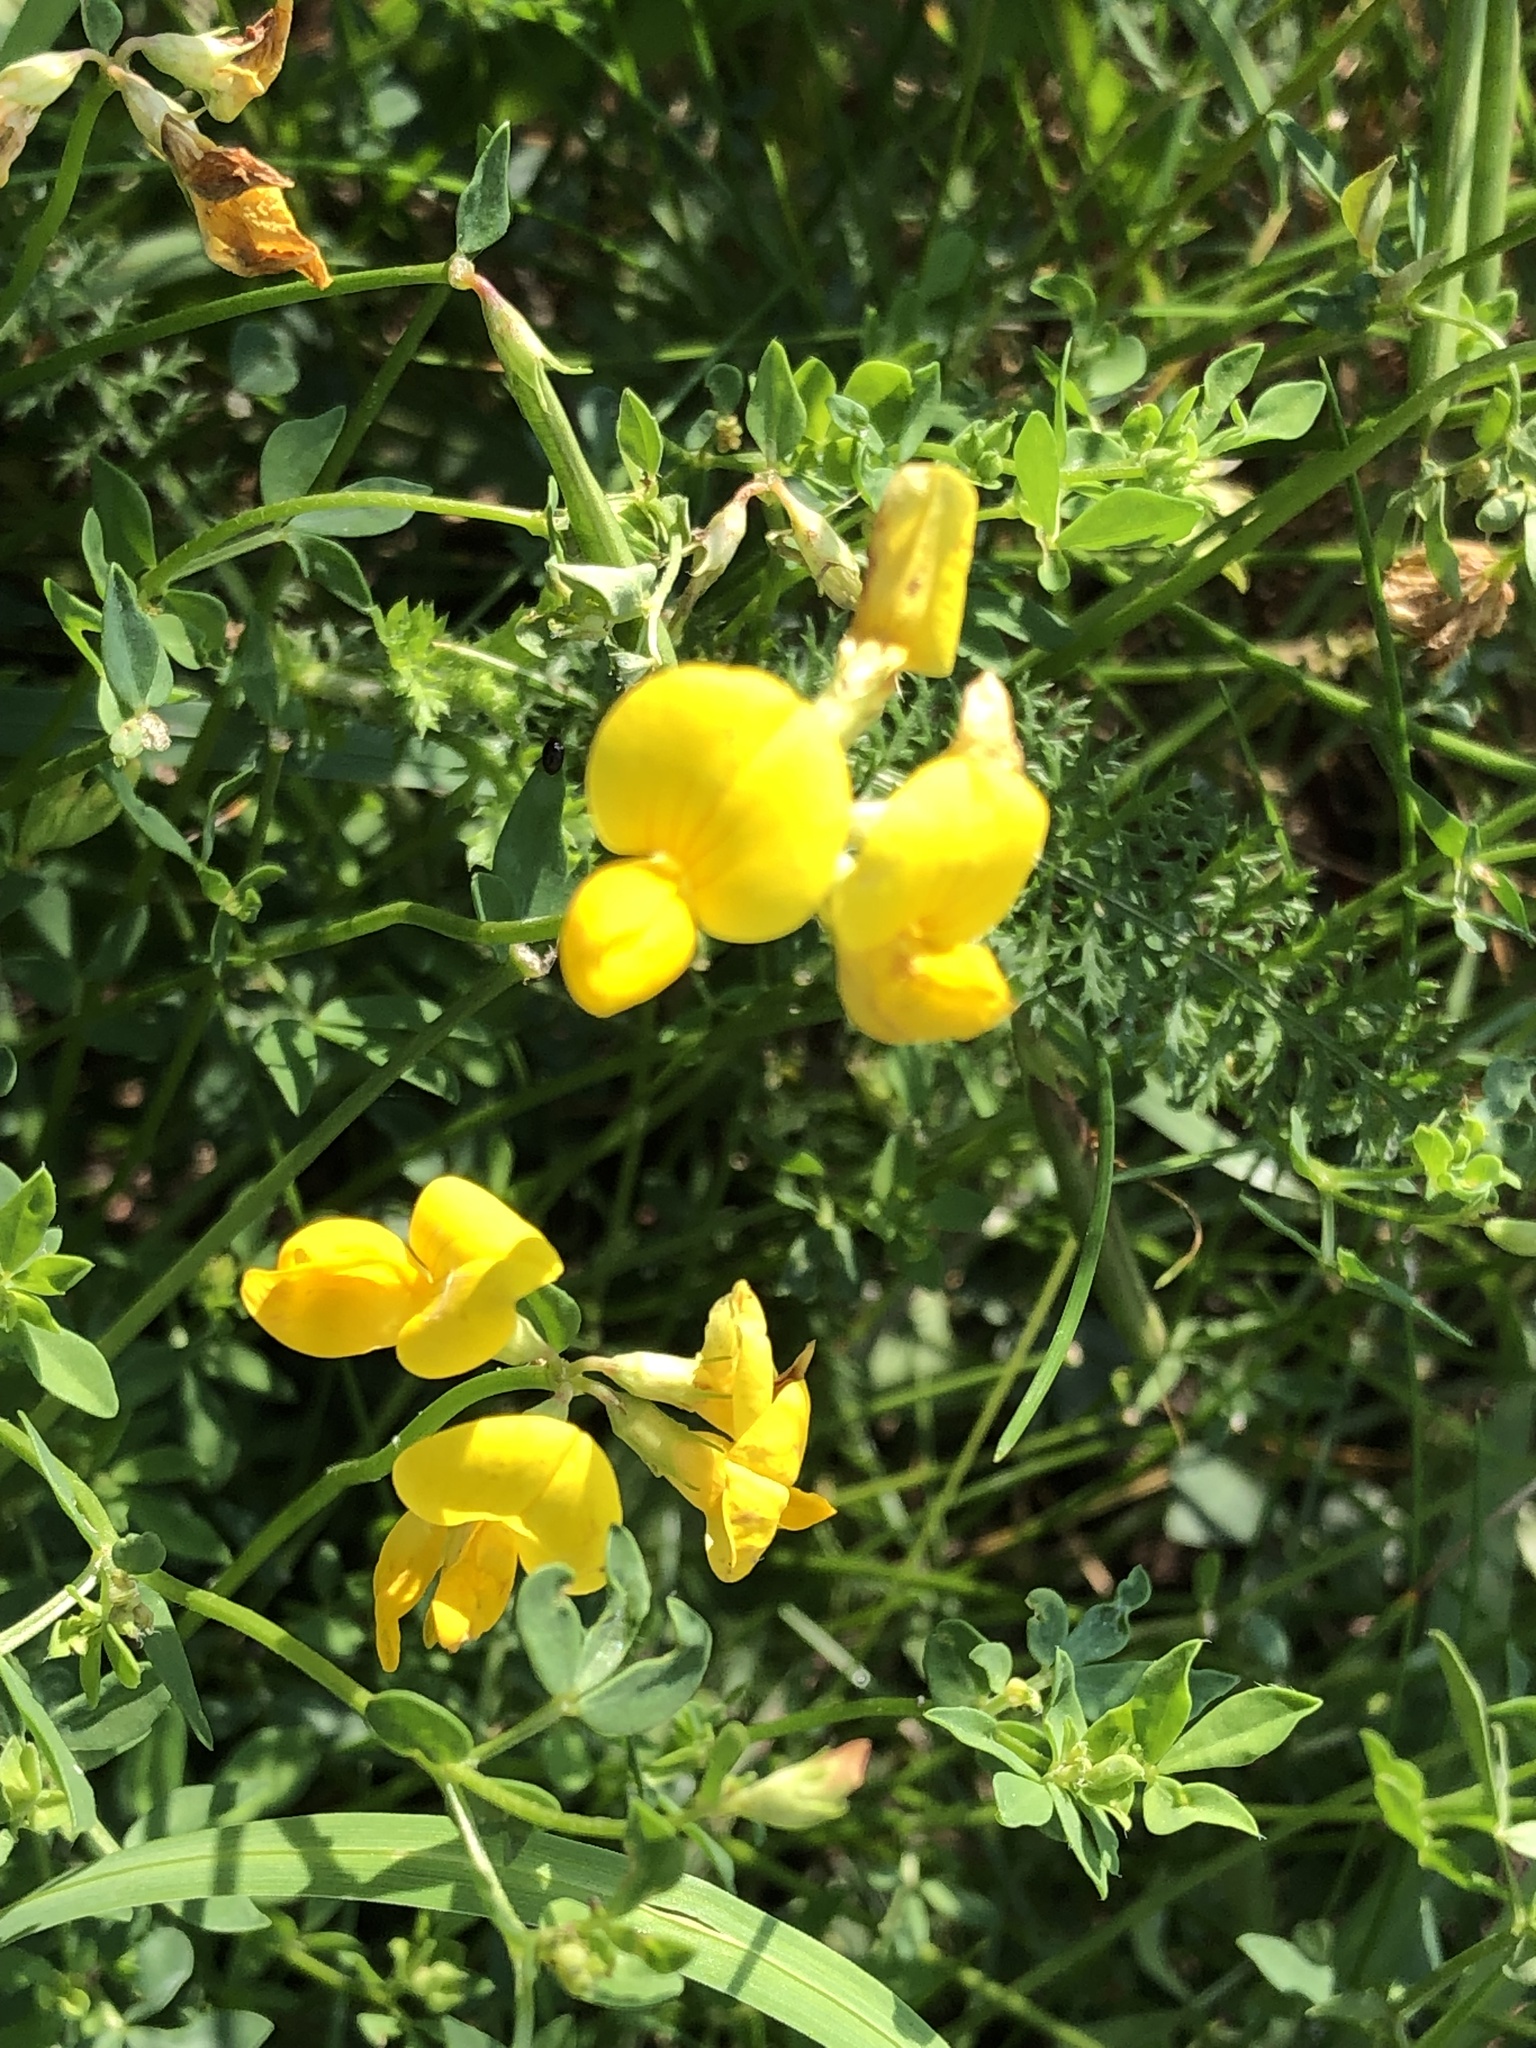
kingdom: Plantae
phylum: Tracheophyta
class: Magnoliopsida
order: Fabales
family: Fabaceae
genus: Lotus
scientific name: Lotus corniculatus
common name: Common bird's-foot-trefoil
